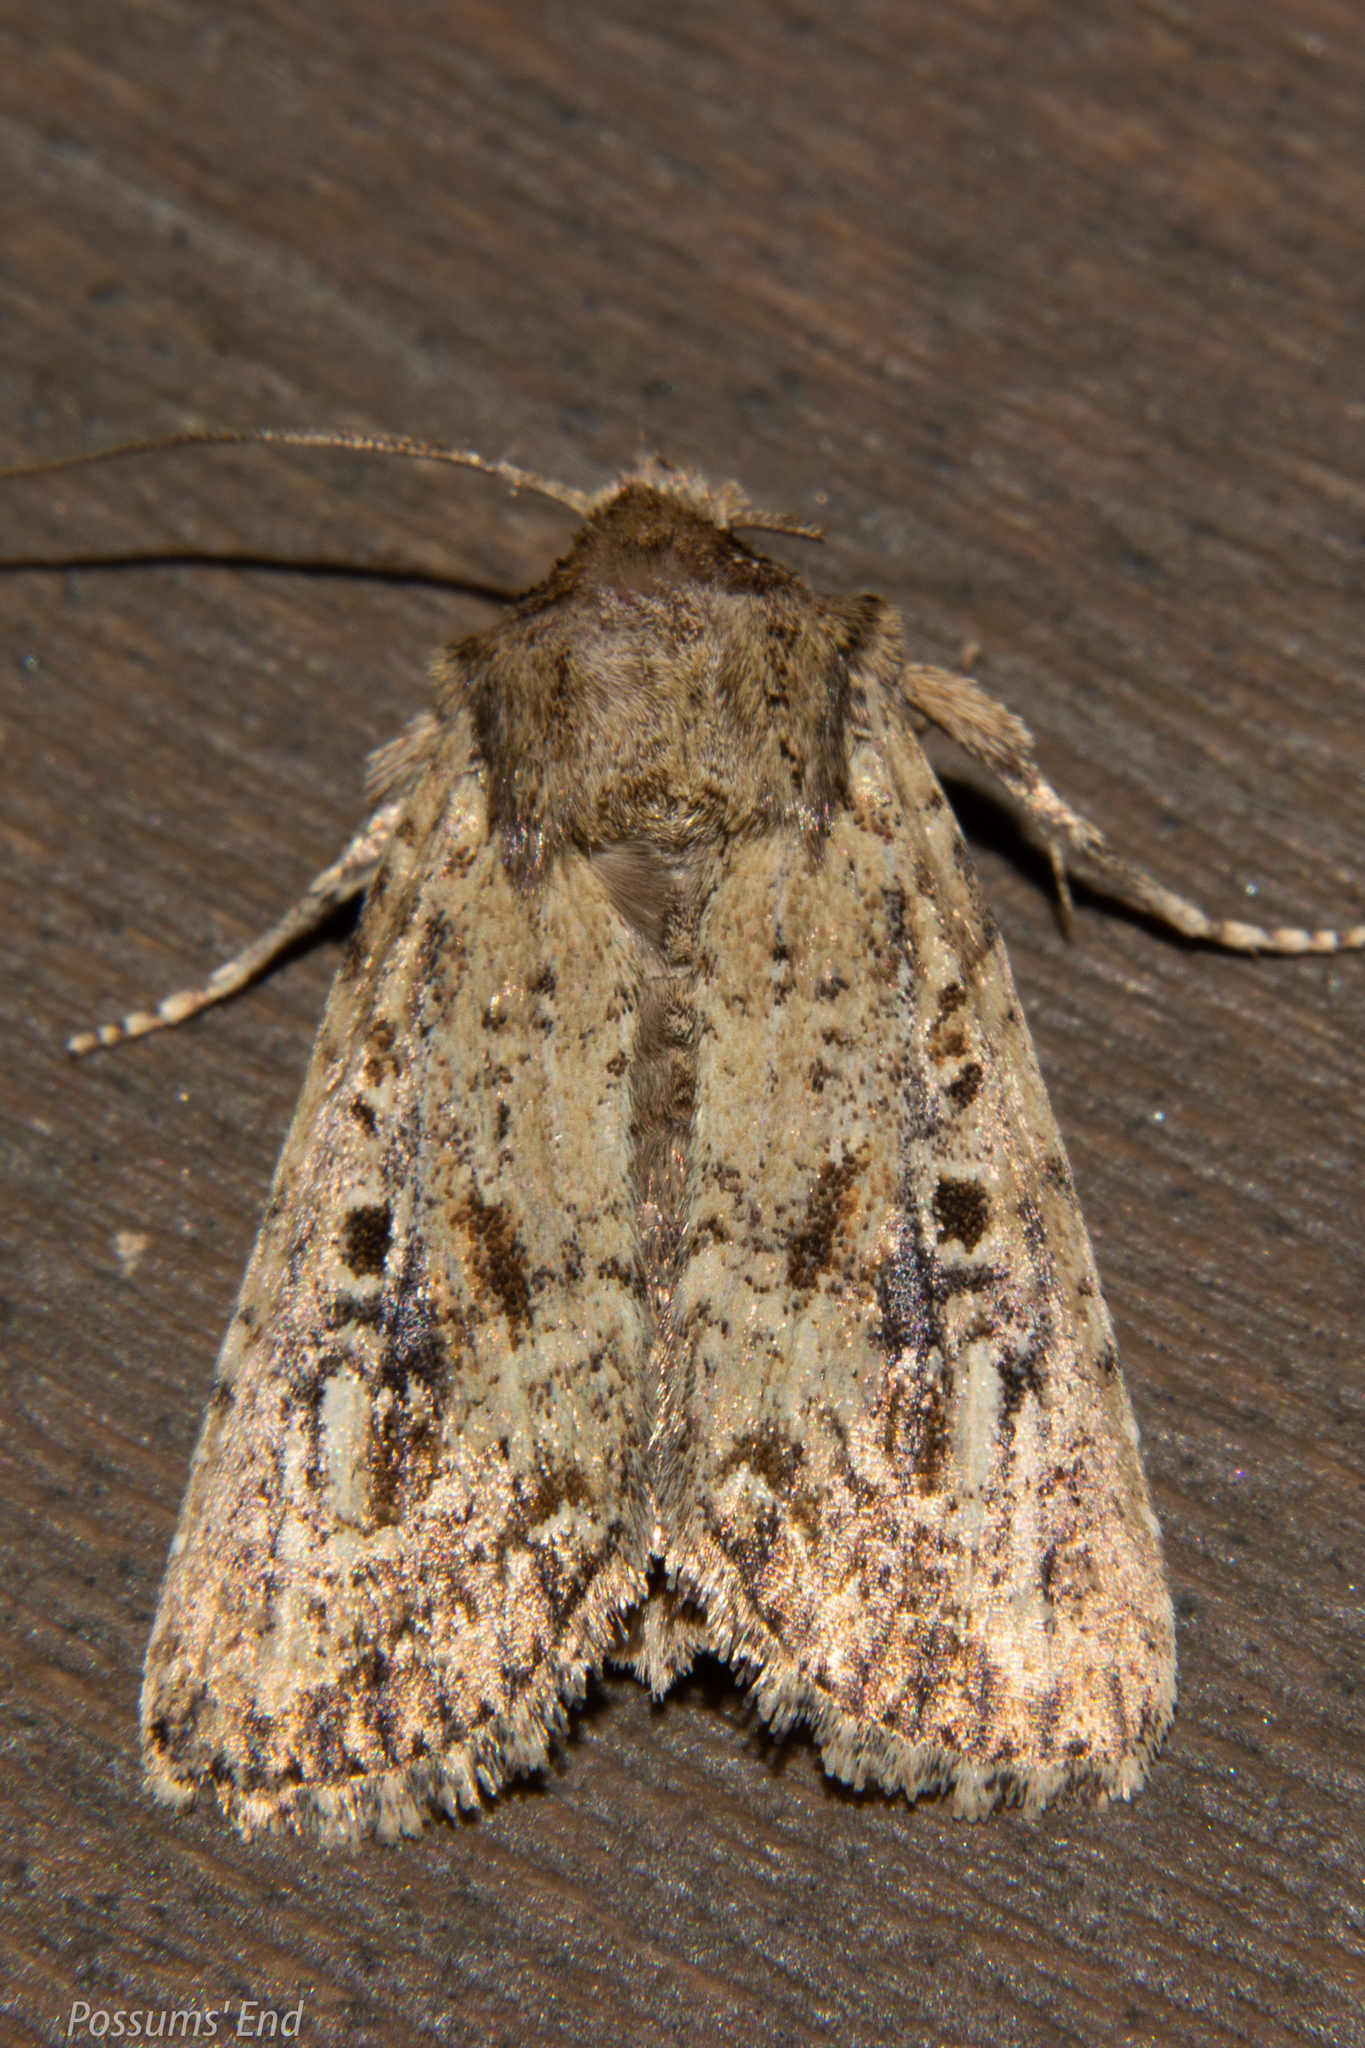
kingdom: Animalia
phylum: Arthropoda
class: Insecta
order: Lepidoptera
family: Noctuidae
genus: Ichneutica
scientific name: Ichneutica lignana
